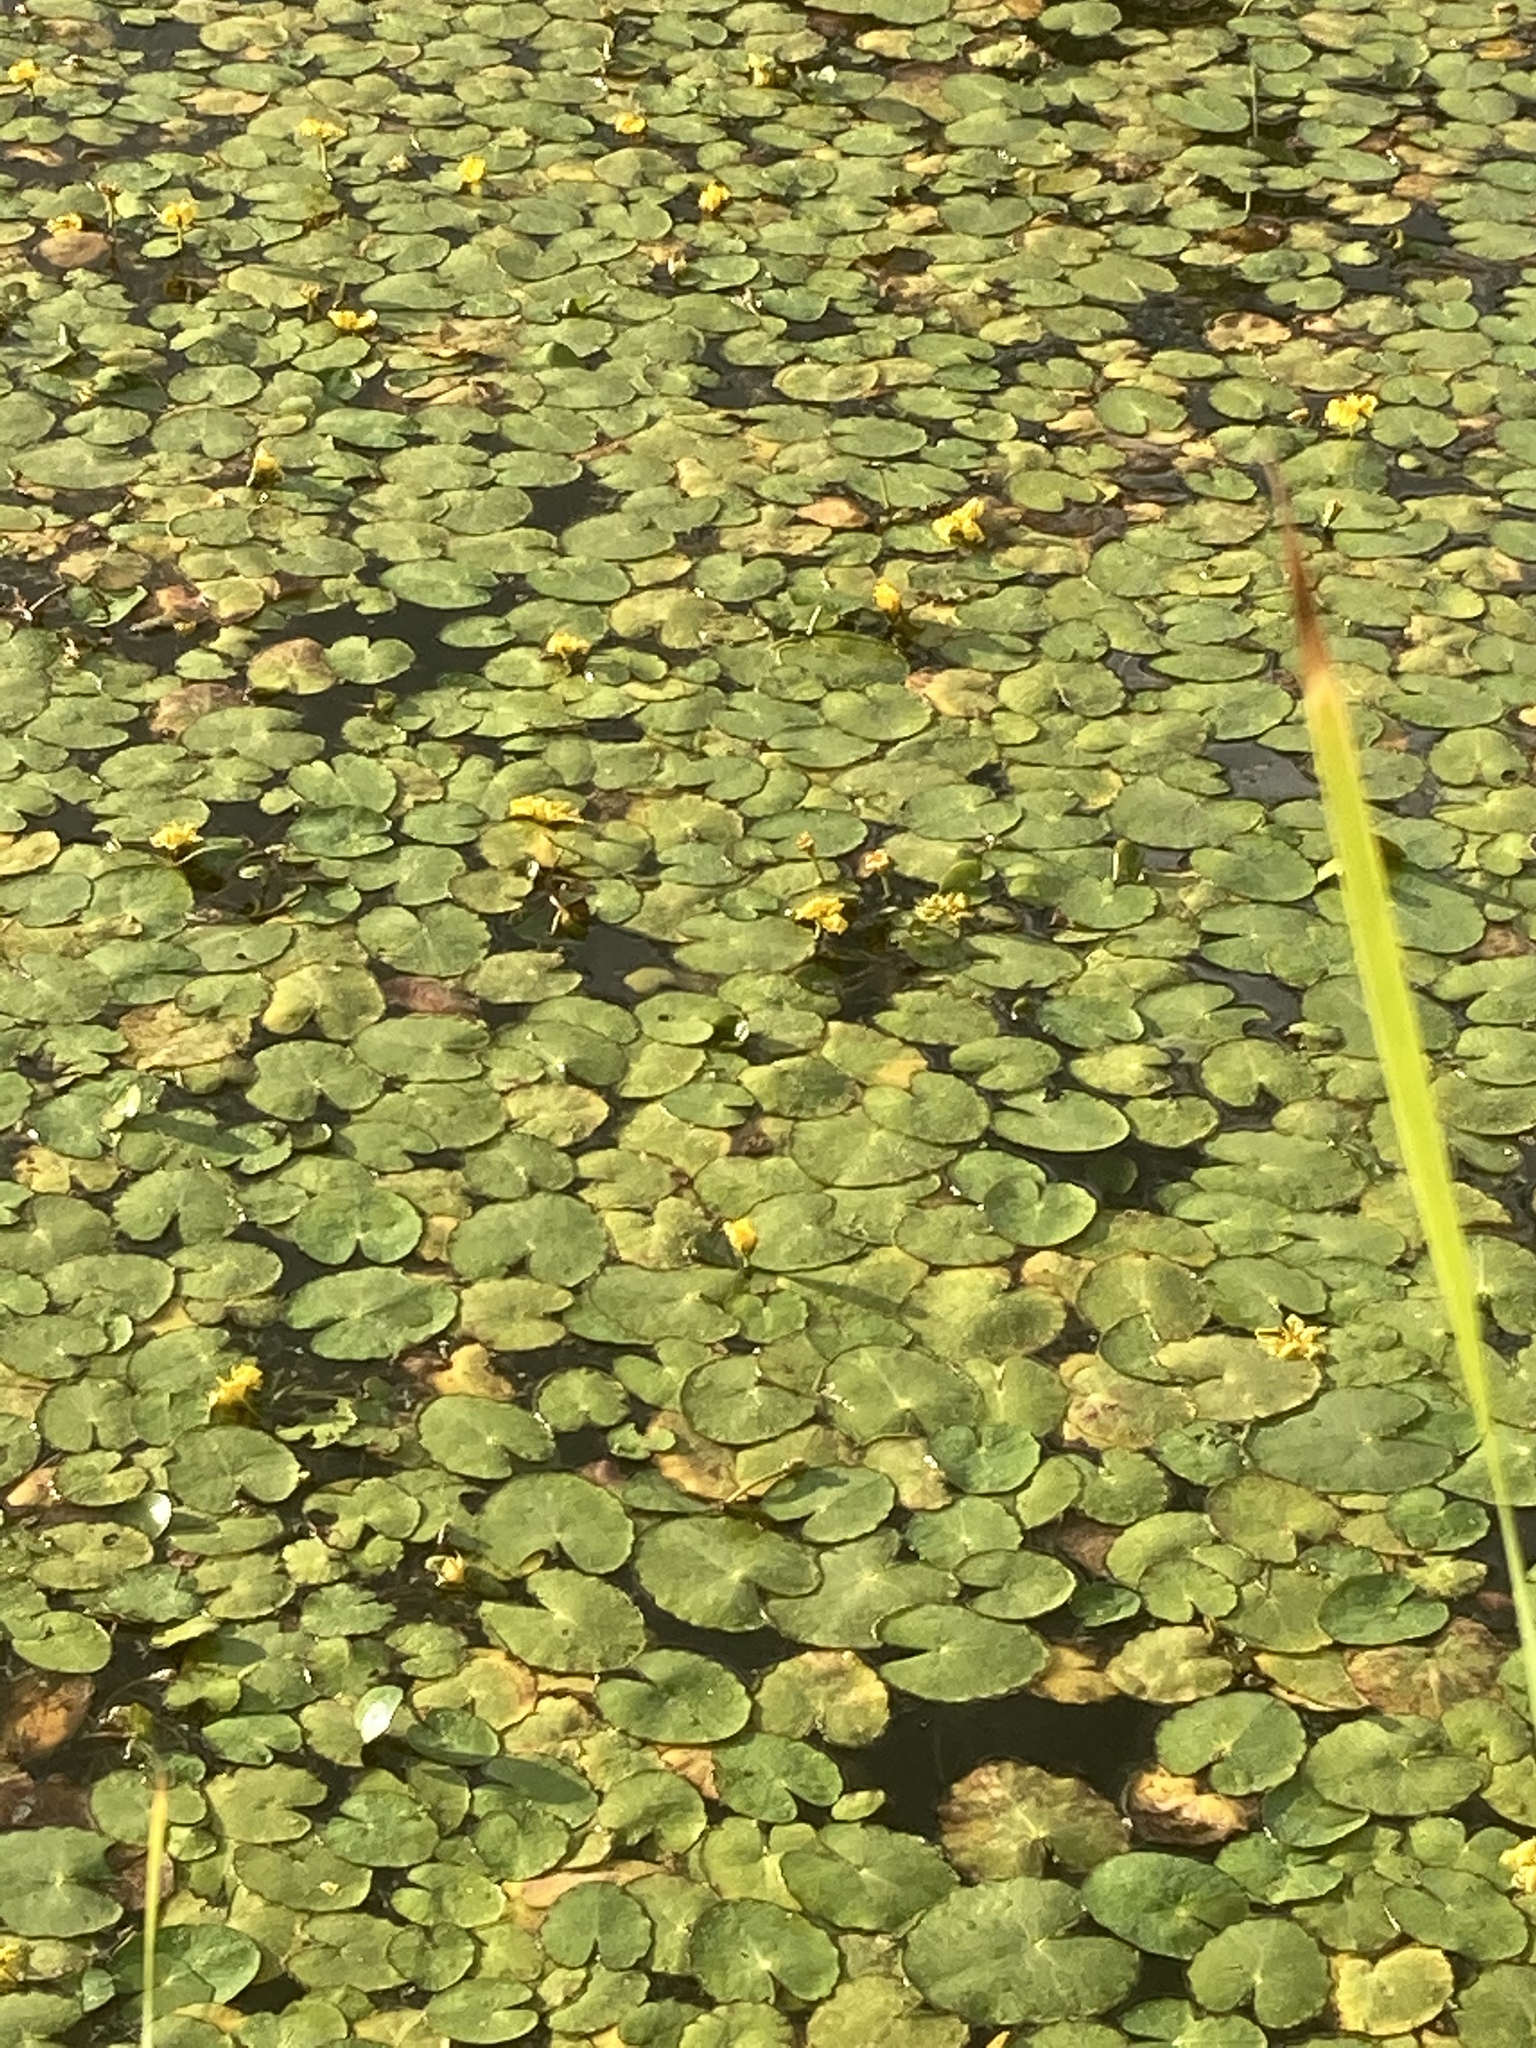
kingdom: Plantae
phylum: Tracheophyta
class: Magnoliopsida
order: Asterales
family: Menyanthaceae
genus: Nymphoides
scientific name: Nymphoides peltata
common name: Fringed water-lily
